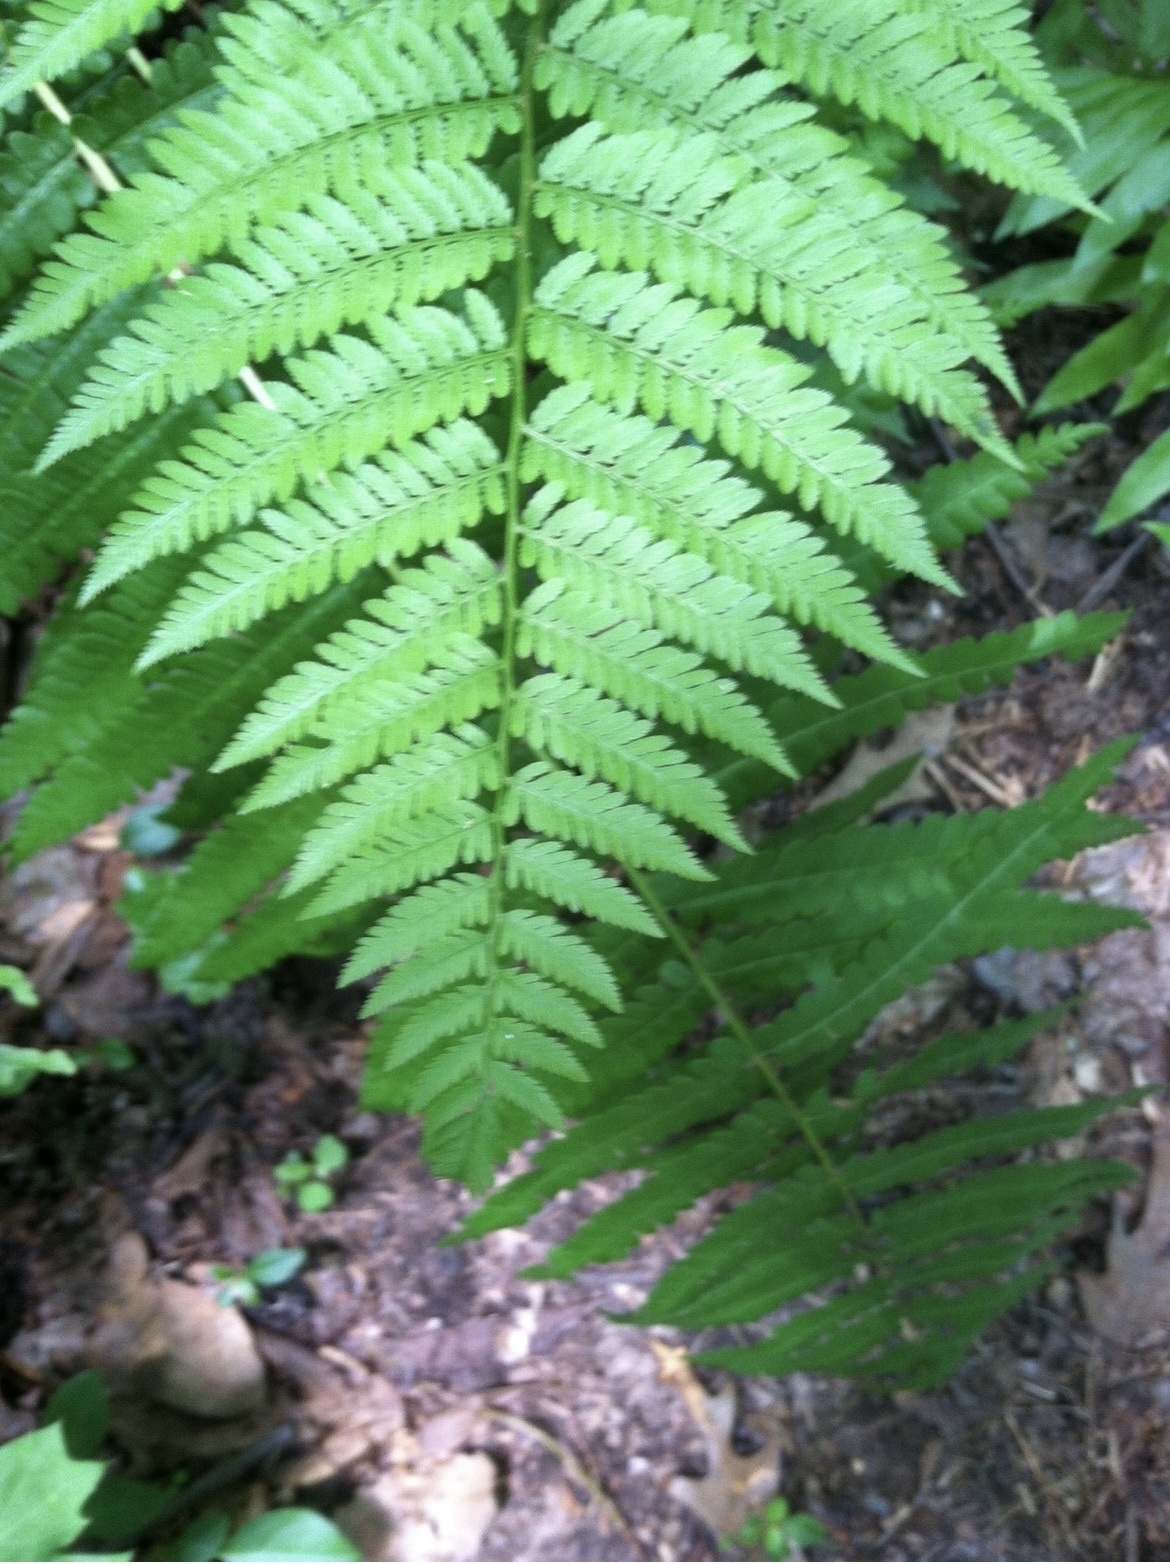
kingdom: Plantae
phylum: Tracheophyta
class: Polypodiopsida
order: Polypodiales
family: Thelypteridaceae
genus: Macrothelypteris
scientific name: Macrothelypteris torresiana
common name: Swordfern
